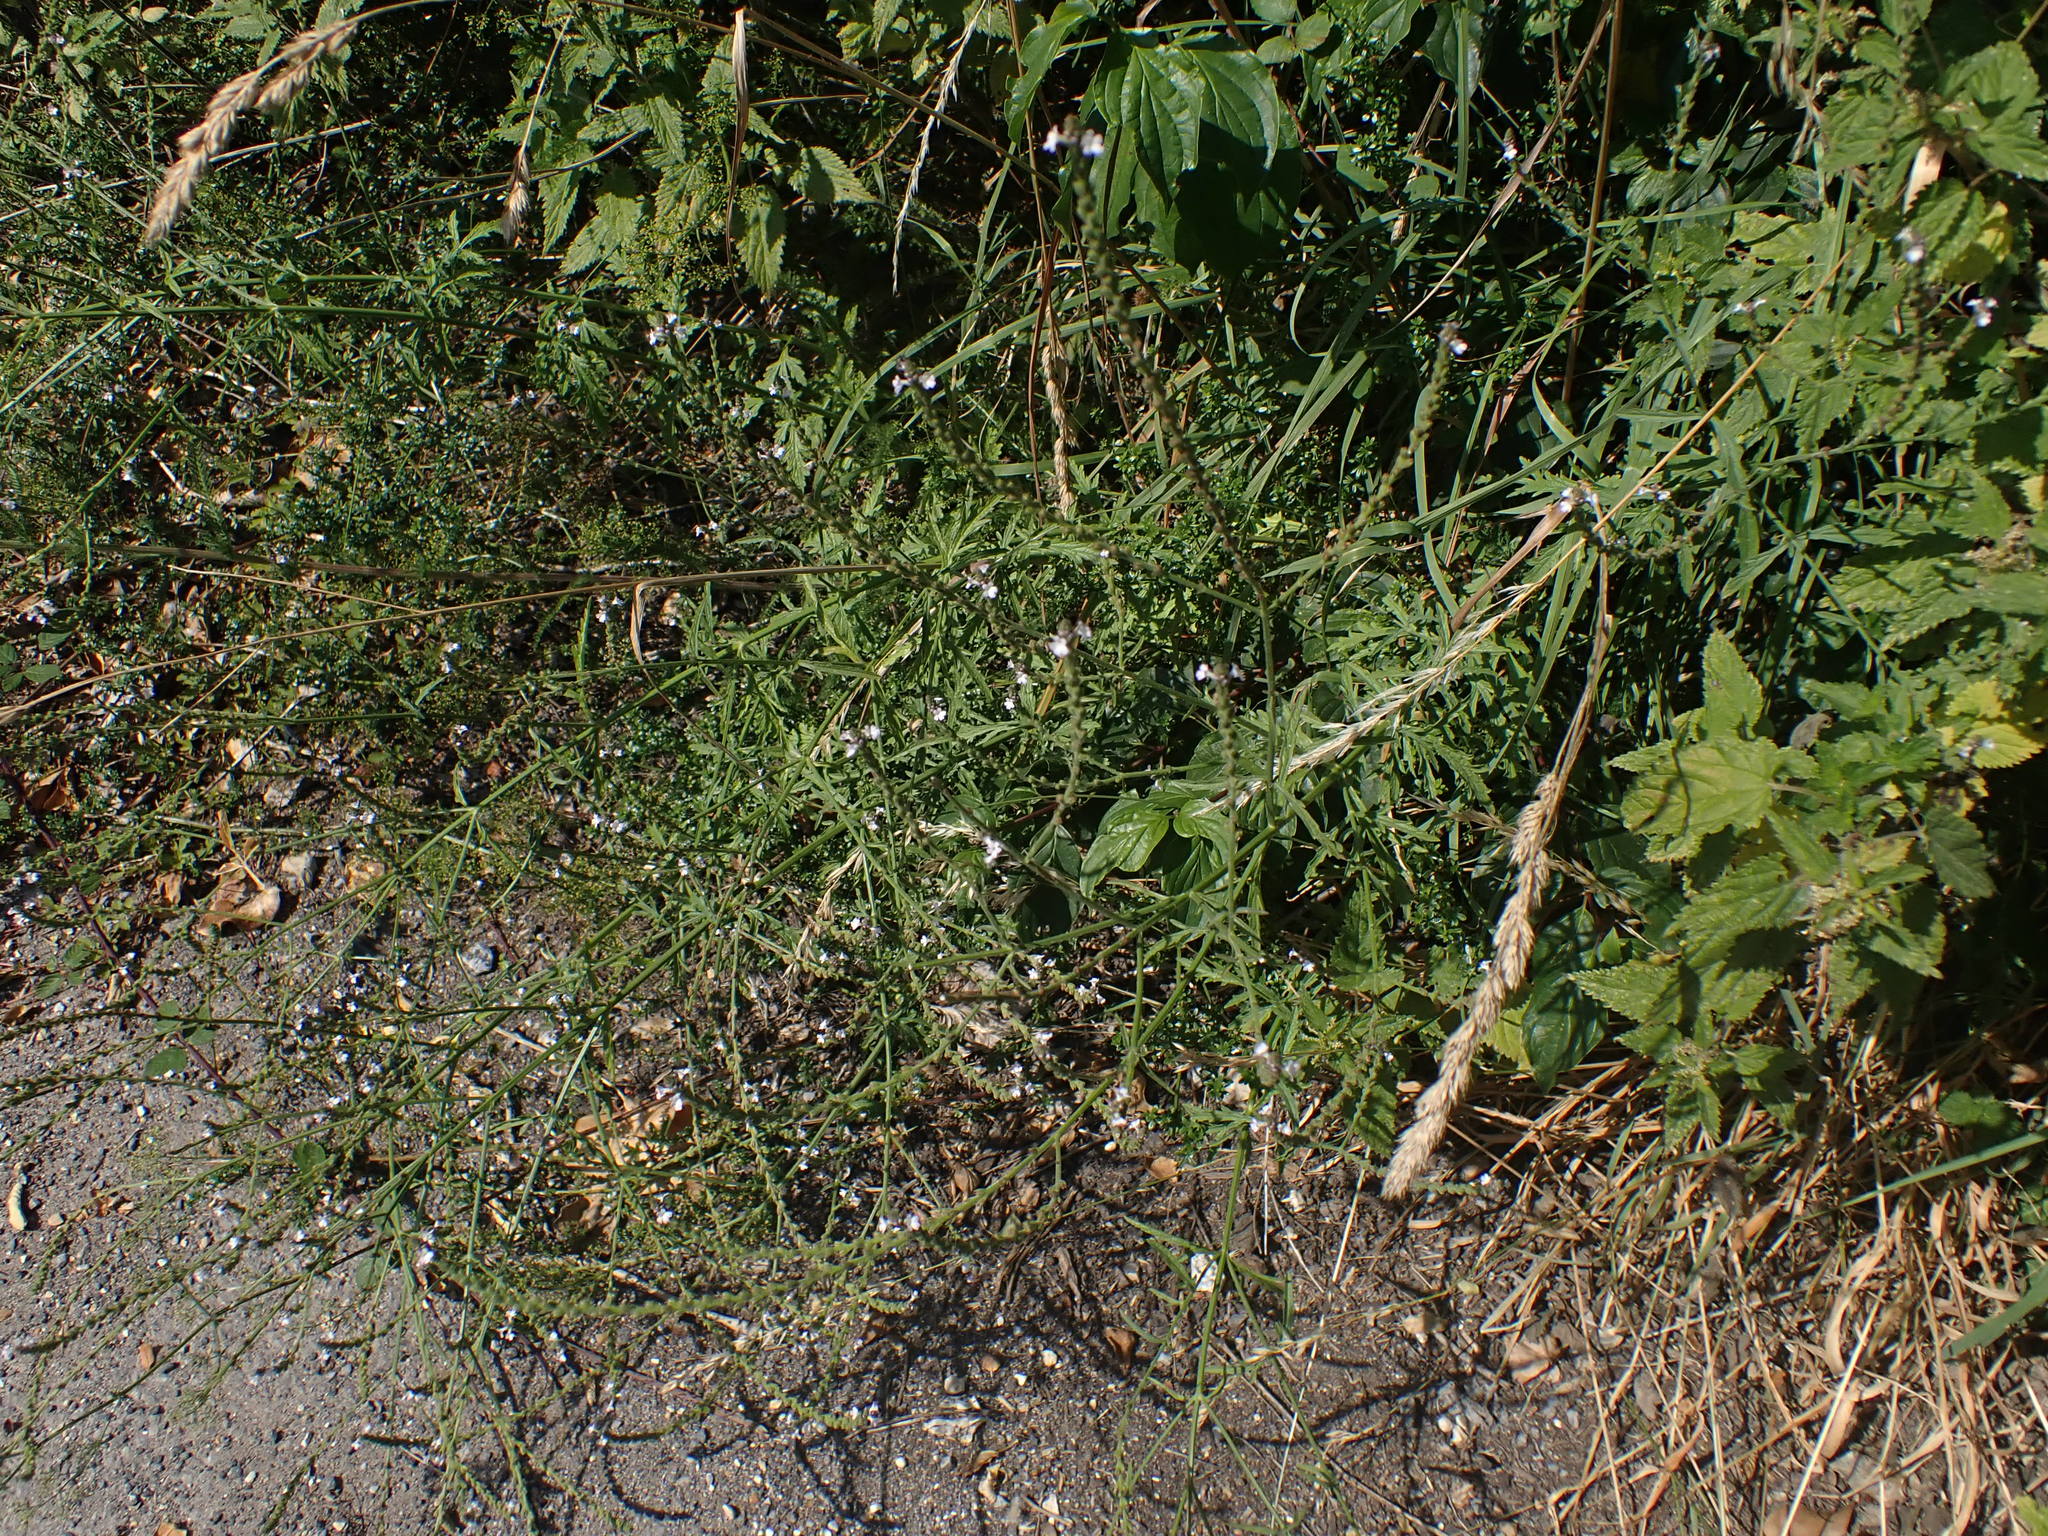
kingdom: Plantae
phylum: Tracheophyta
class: Magnoliopsida
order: Lamiales
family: Verbenaceae
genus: Verbena
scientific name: Verbena officinalis
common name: Vervain
